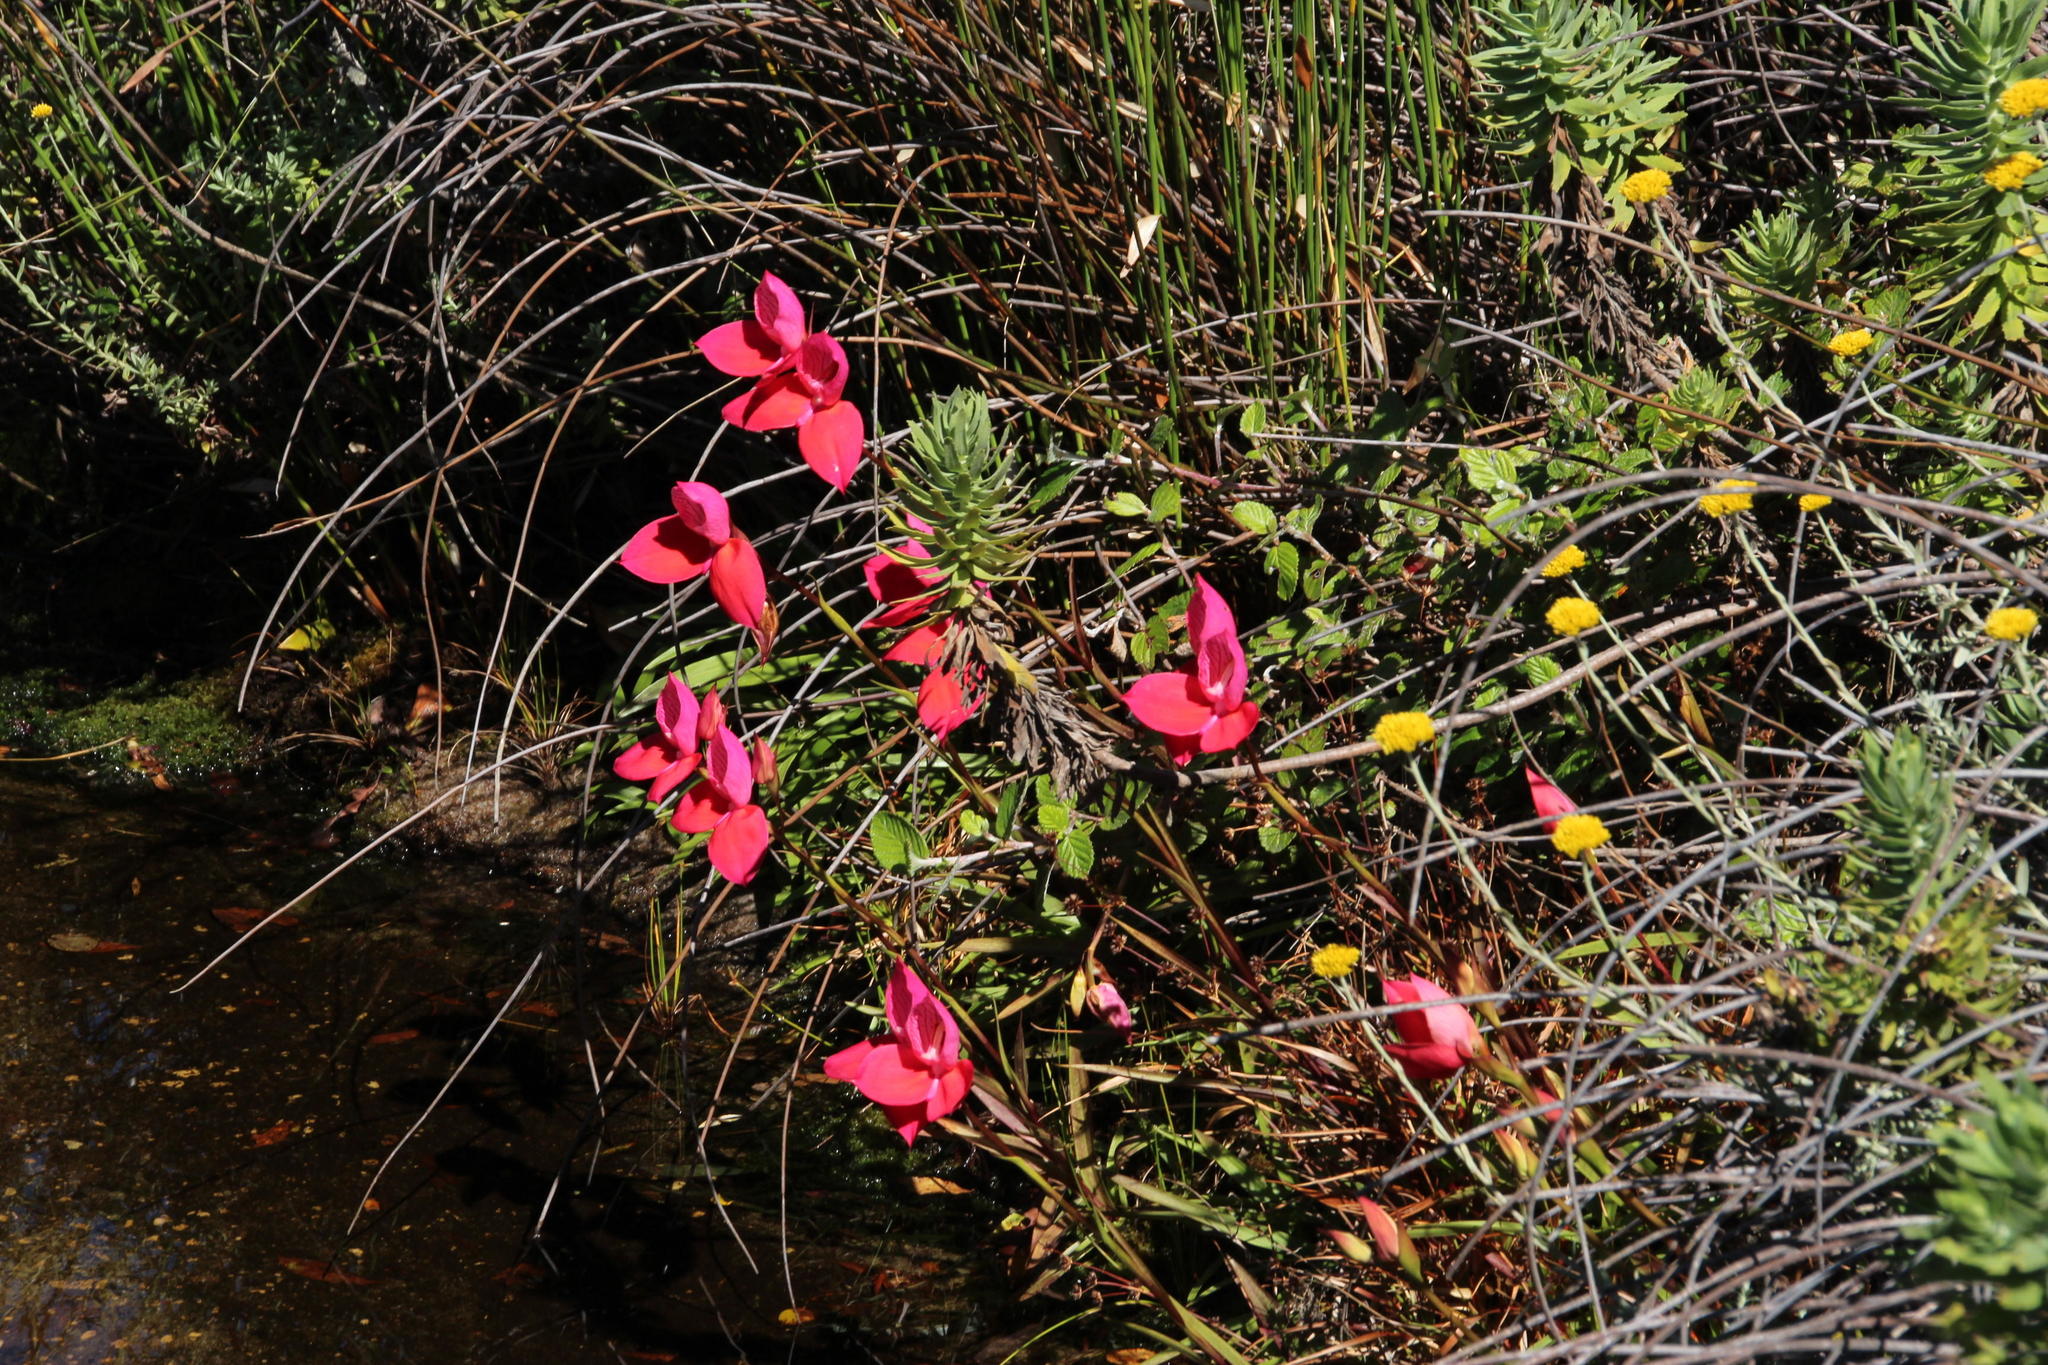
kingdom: Plantae
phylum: Tracheophyta
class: Liliopsida
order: Asparagales
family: Orchidaceae
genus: Disa
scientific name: Disa uniflora
